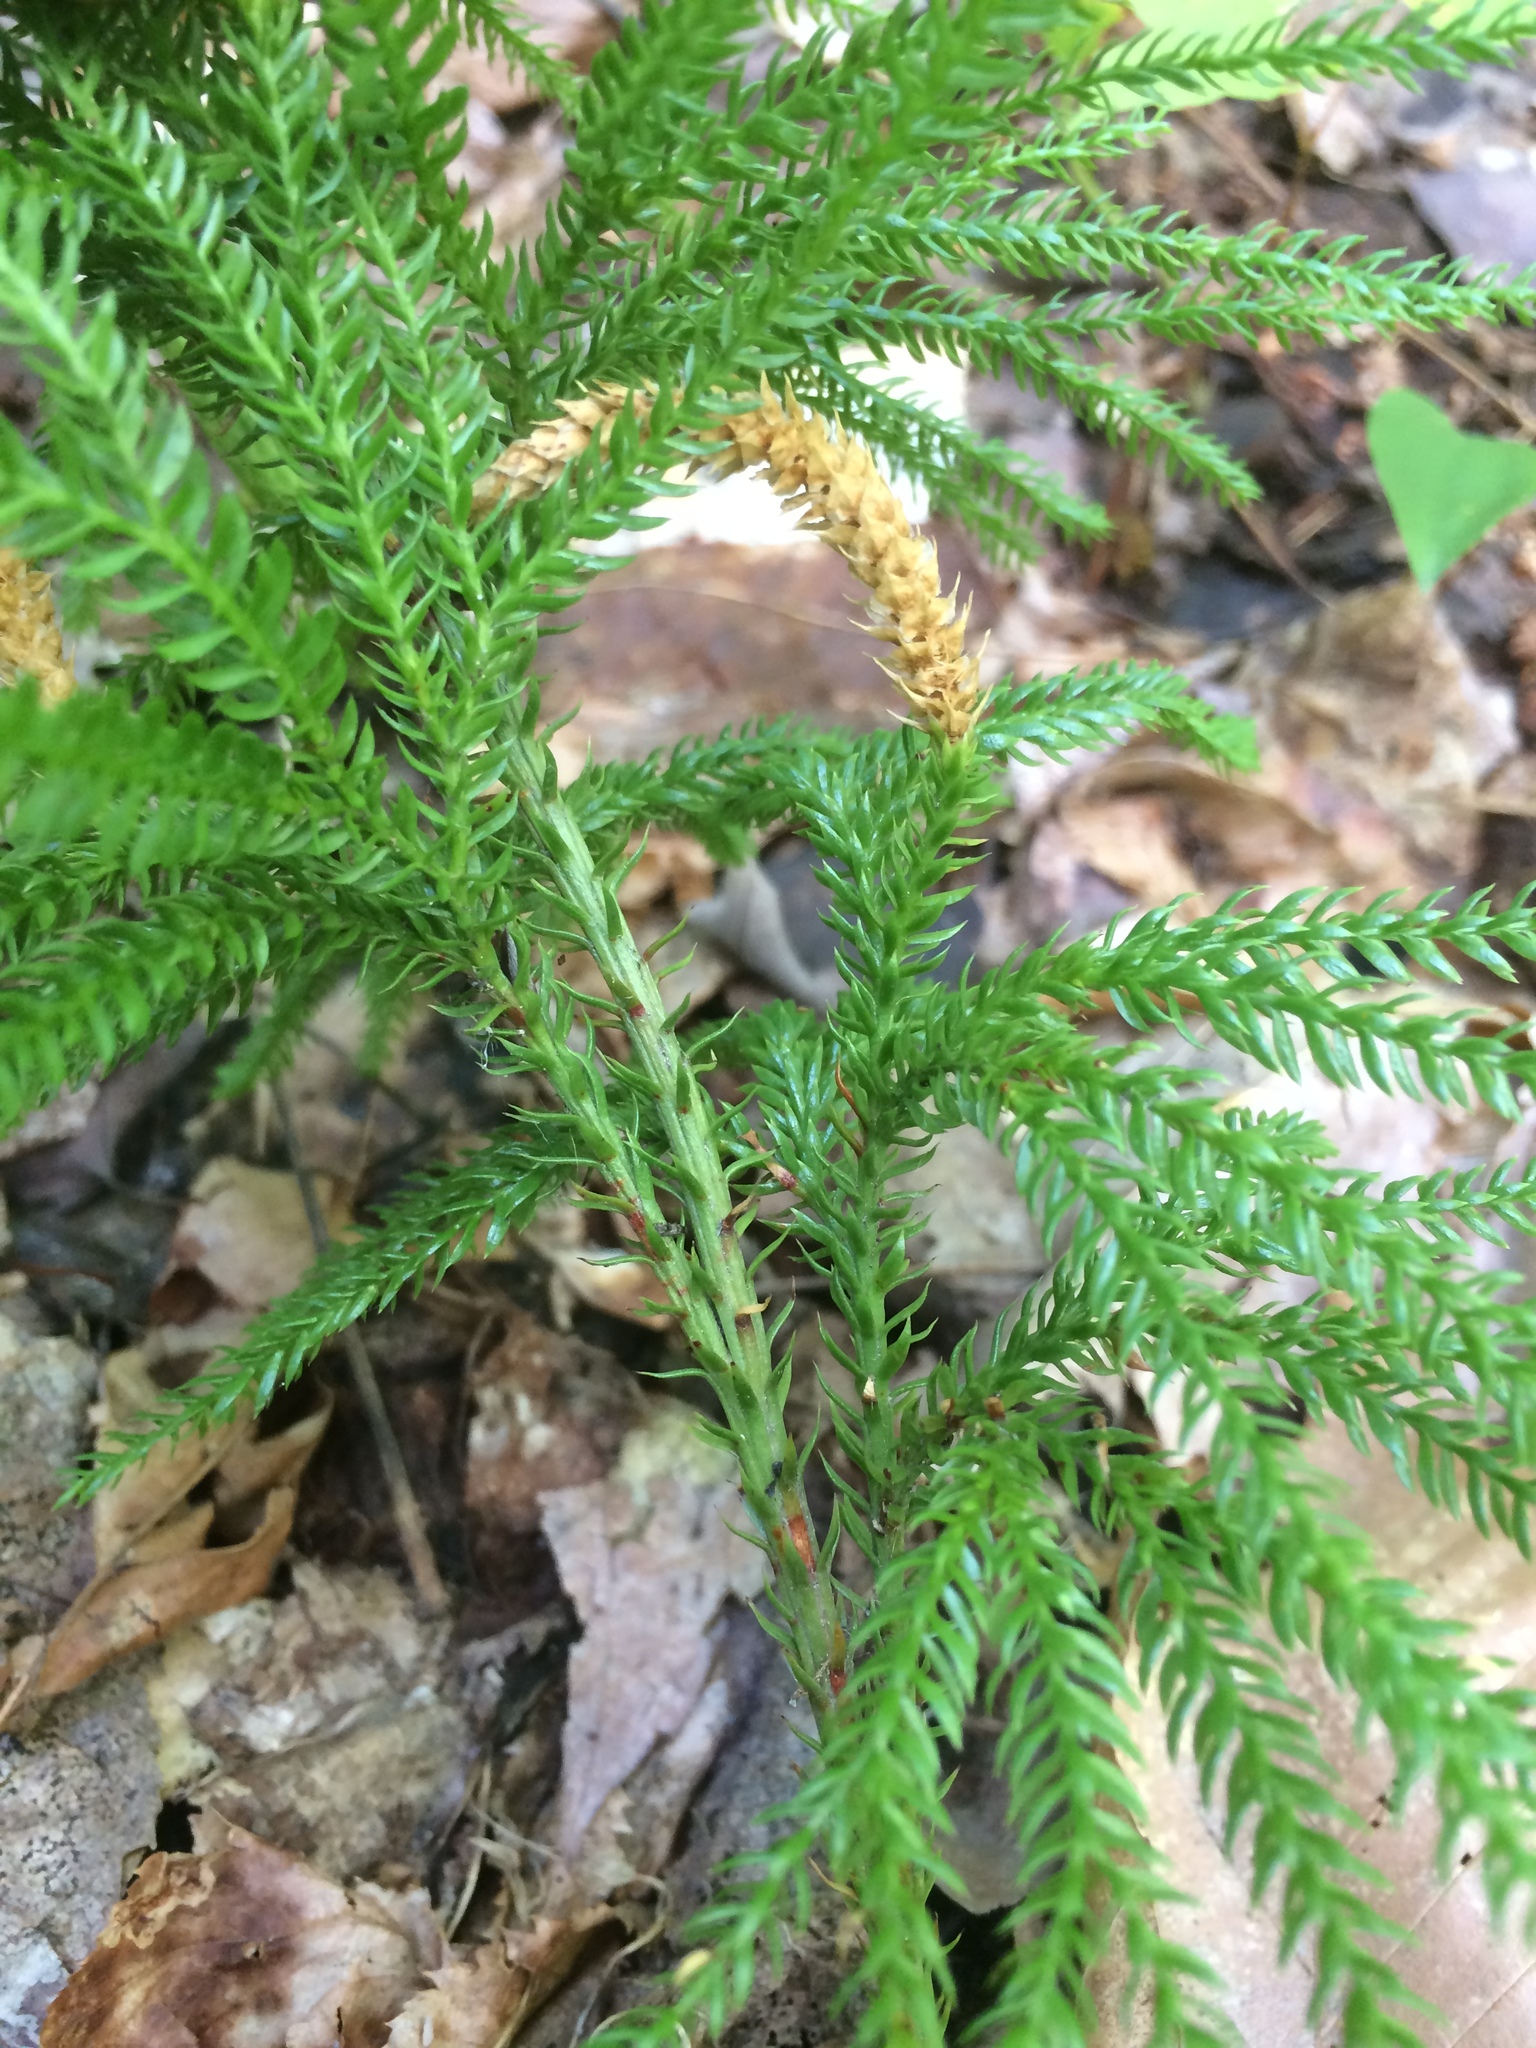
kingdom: Plantae
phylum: Tracheophyta
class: Lycopodiopsida
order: Lycopodiales
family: Lycopodiaceae
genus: Dendrolycopodium
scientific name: Dendrolycopodium dendroideum
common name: Northern tree-clubmoss
